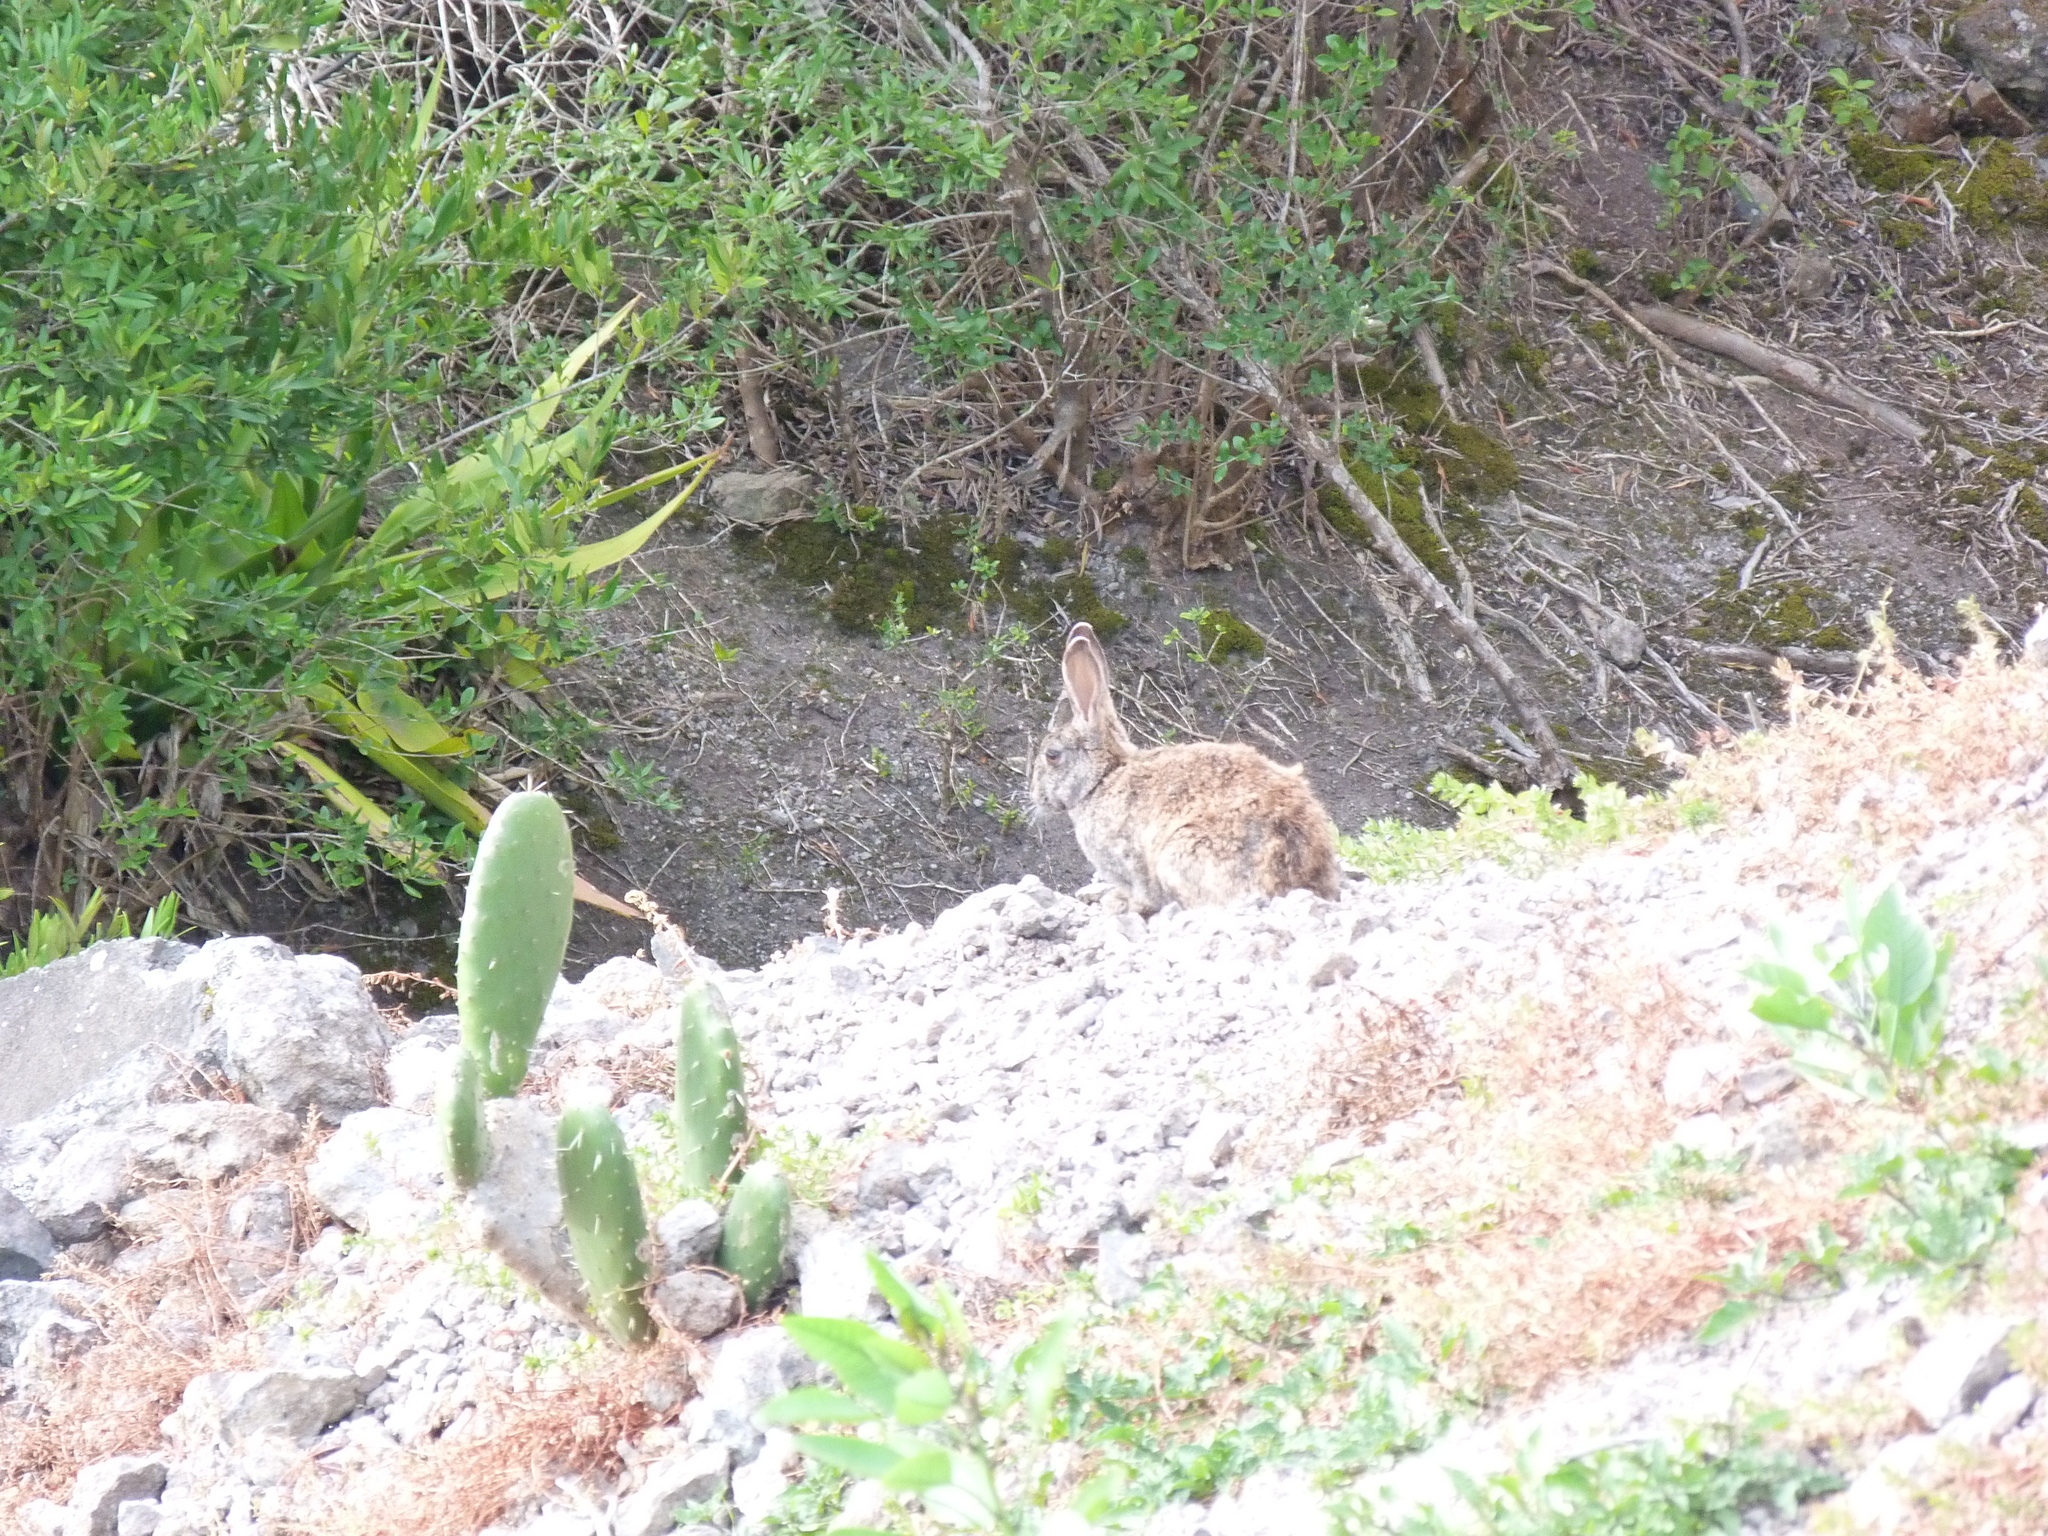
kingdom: Animalia
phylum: Chordata
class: Mammalia
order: Lagomorpha
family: Leporidae
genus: Oryctolagus
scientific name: Oryctolagus cuniculus
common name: European rabbit
